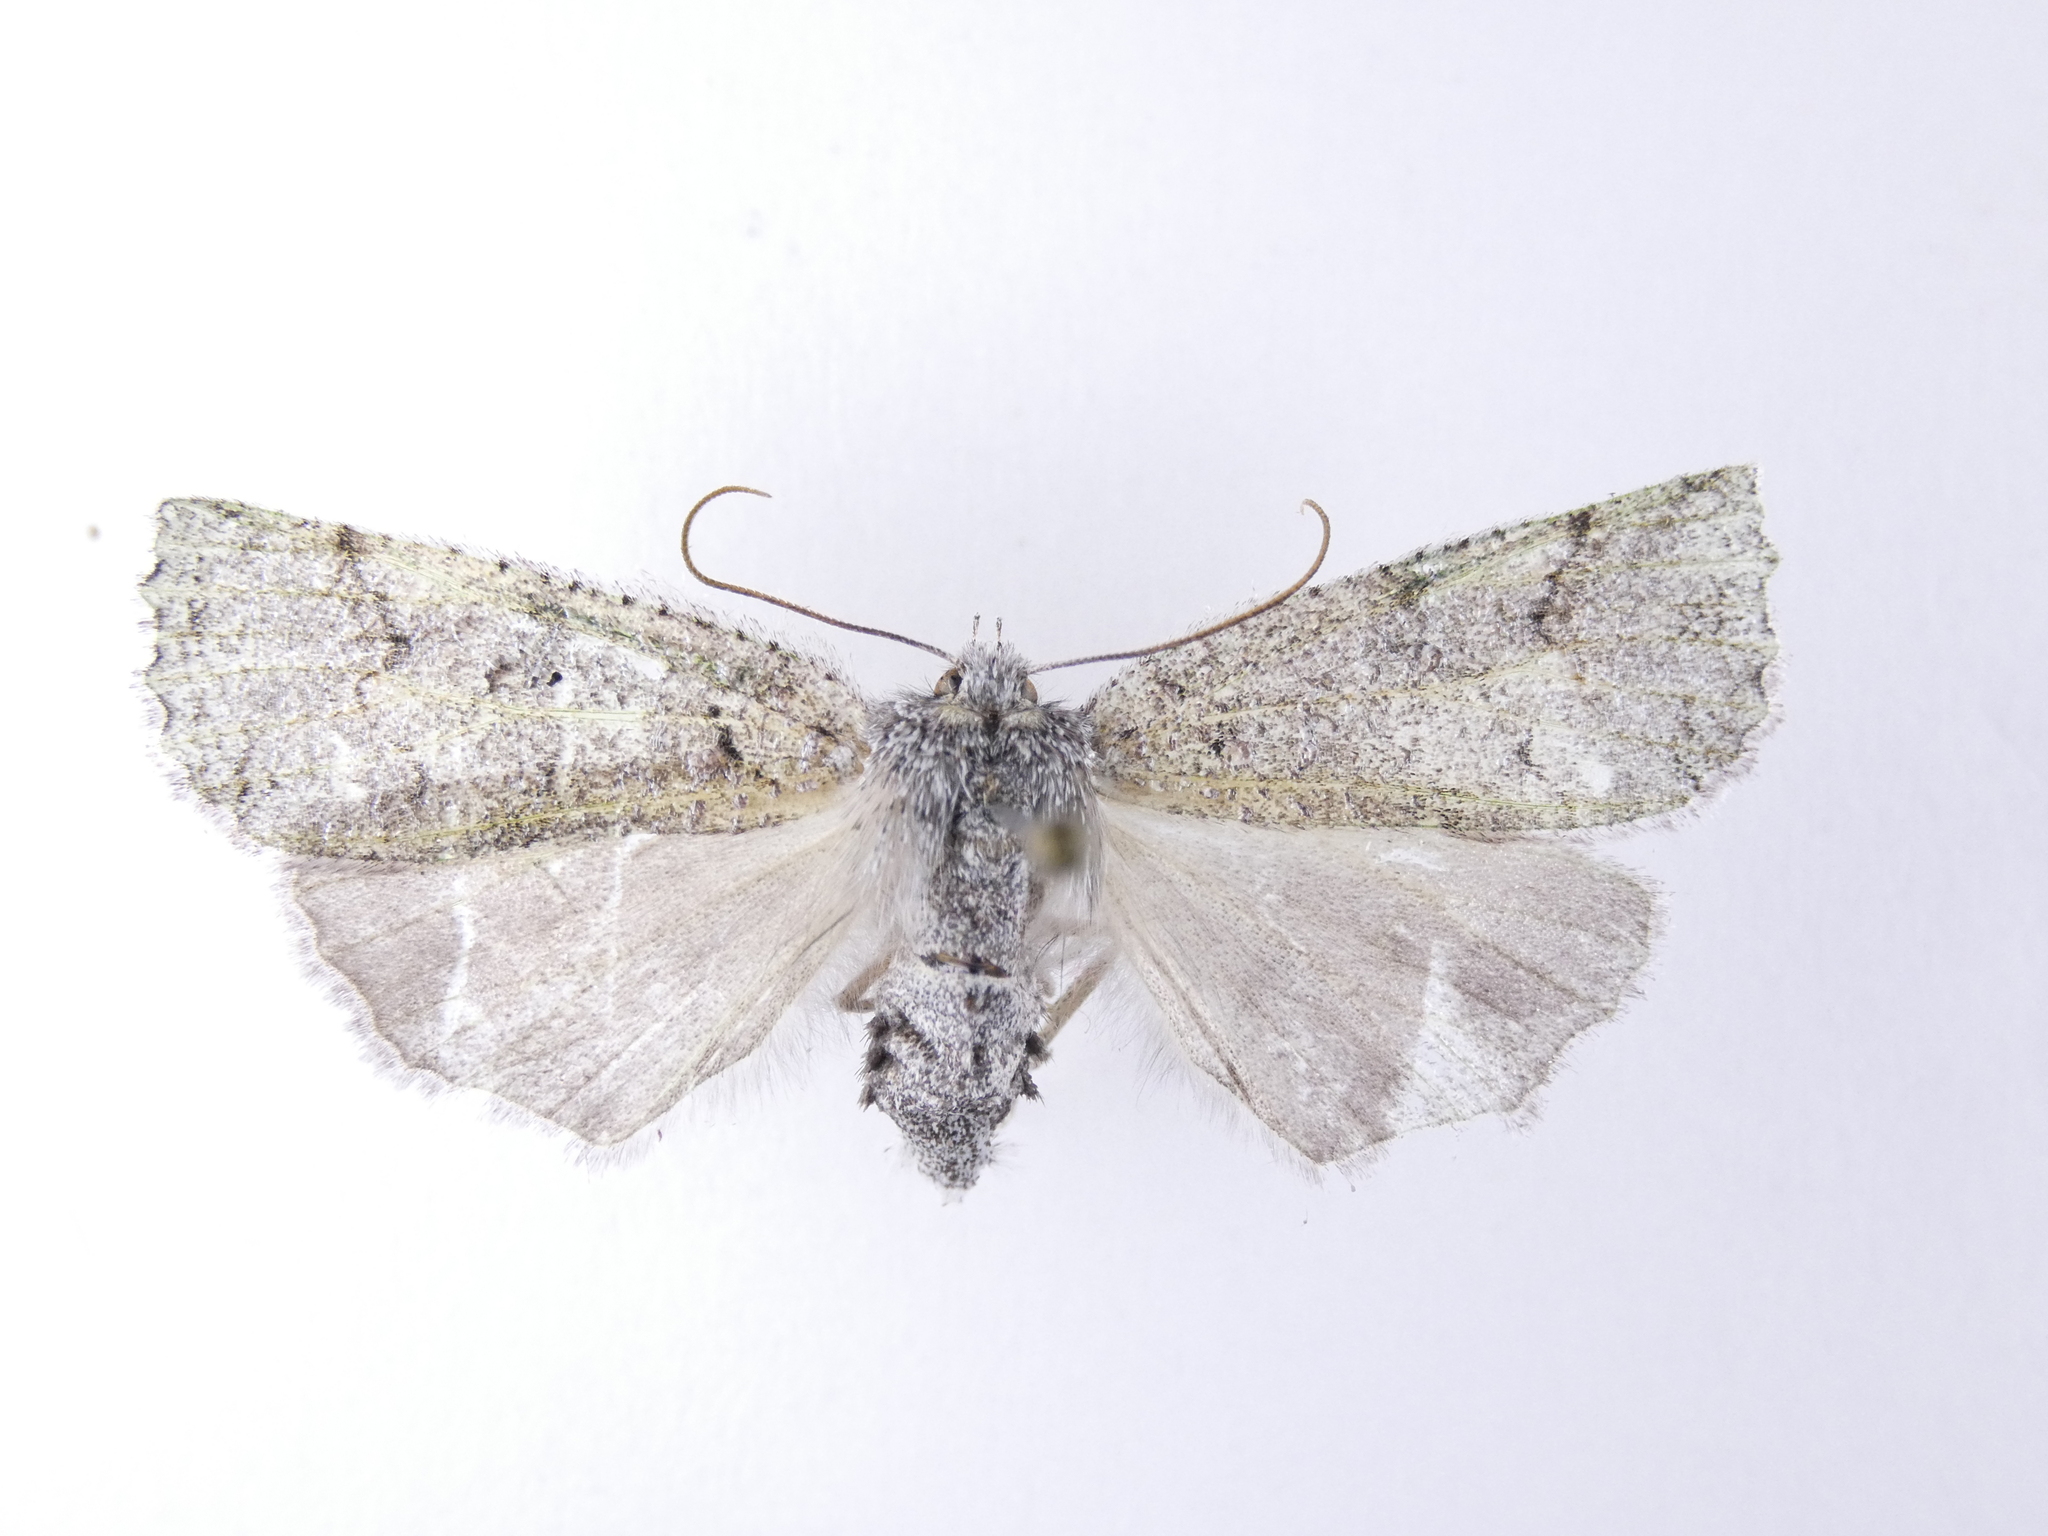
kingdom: Animalia
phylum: Arthropoda
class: Insecta
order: Lepidoptera
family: Geometridae
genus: Declana
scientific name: Declana floccosa
